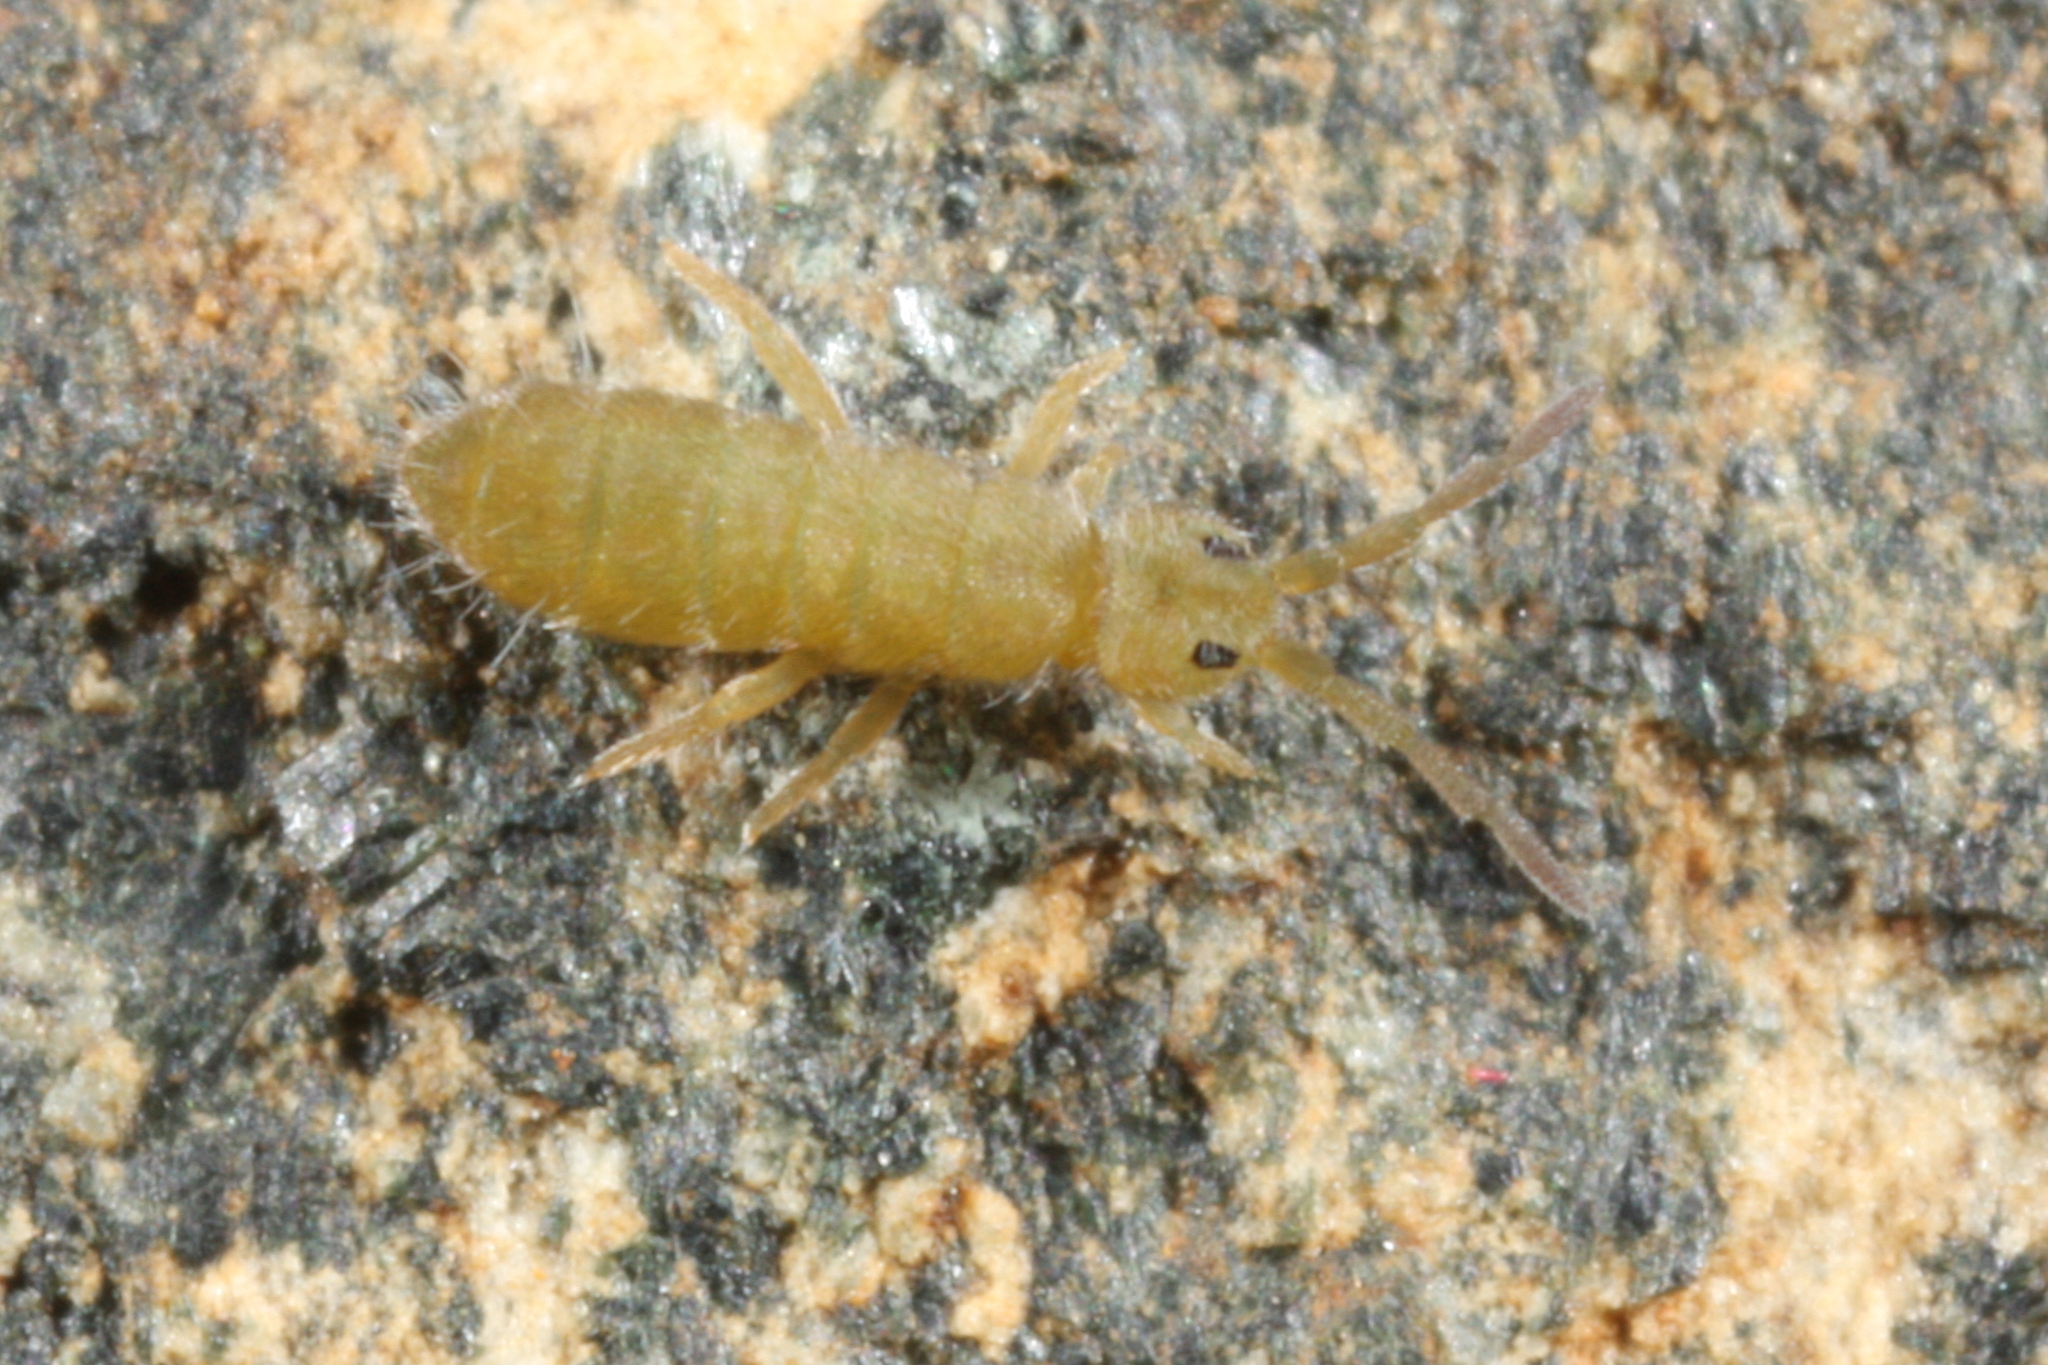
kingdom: Animalia
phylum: Arthropoda
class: Collembola
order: Entomobryomorpha
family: Isotomidae
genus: Isotomurus
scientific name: Isotomurus graminis
